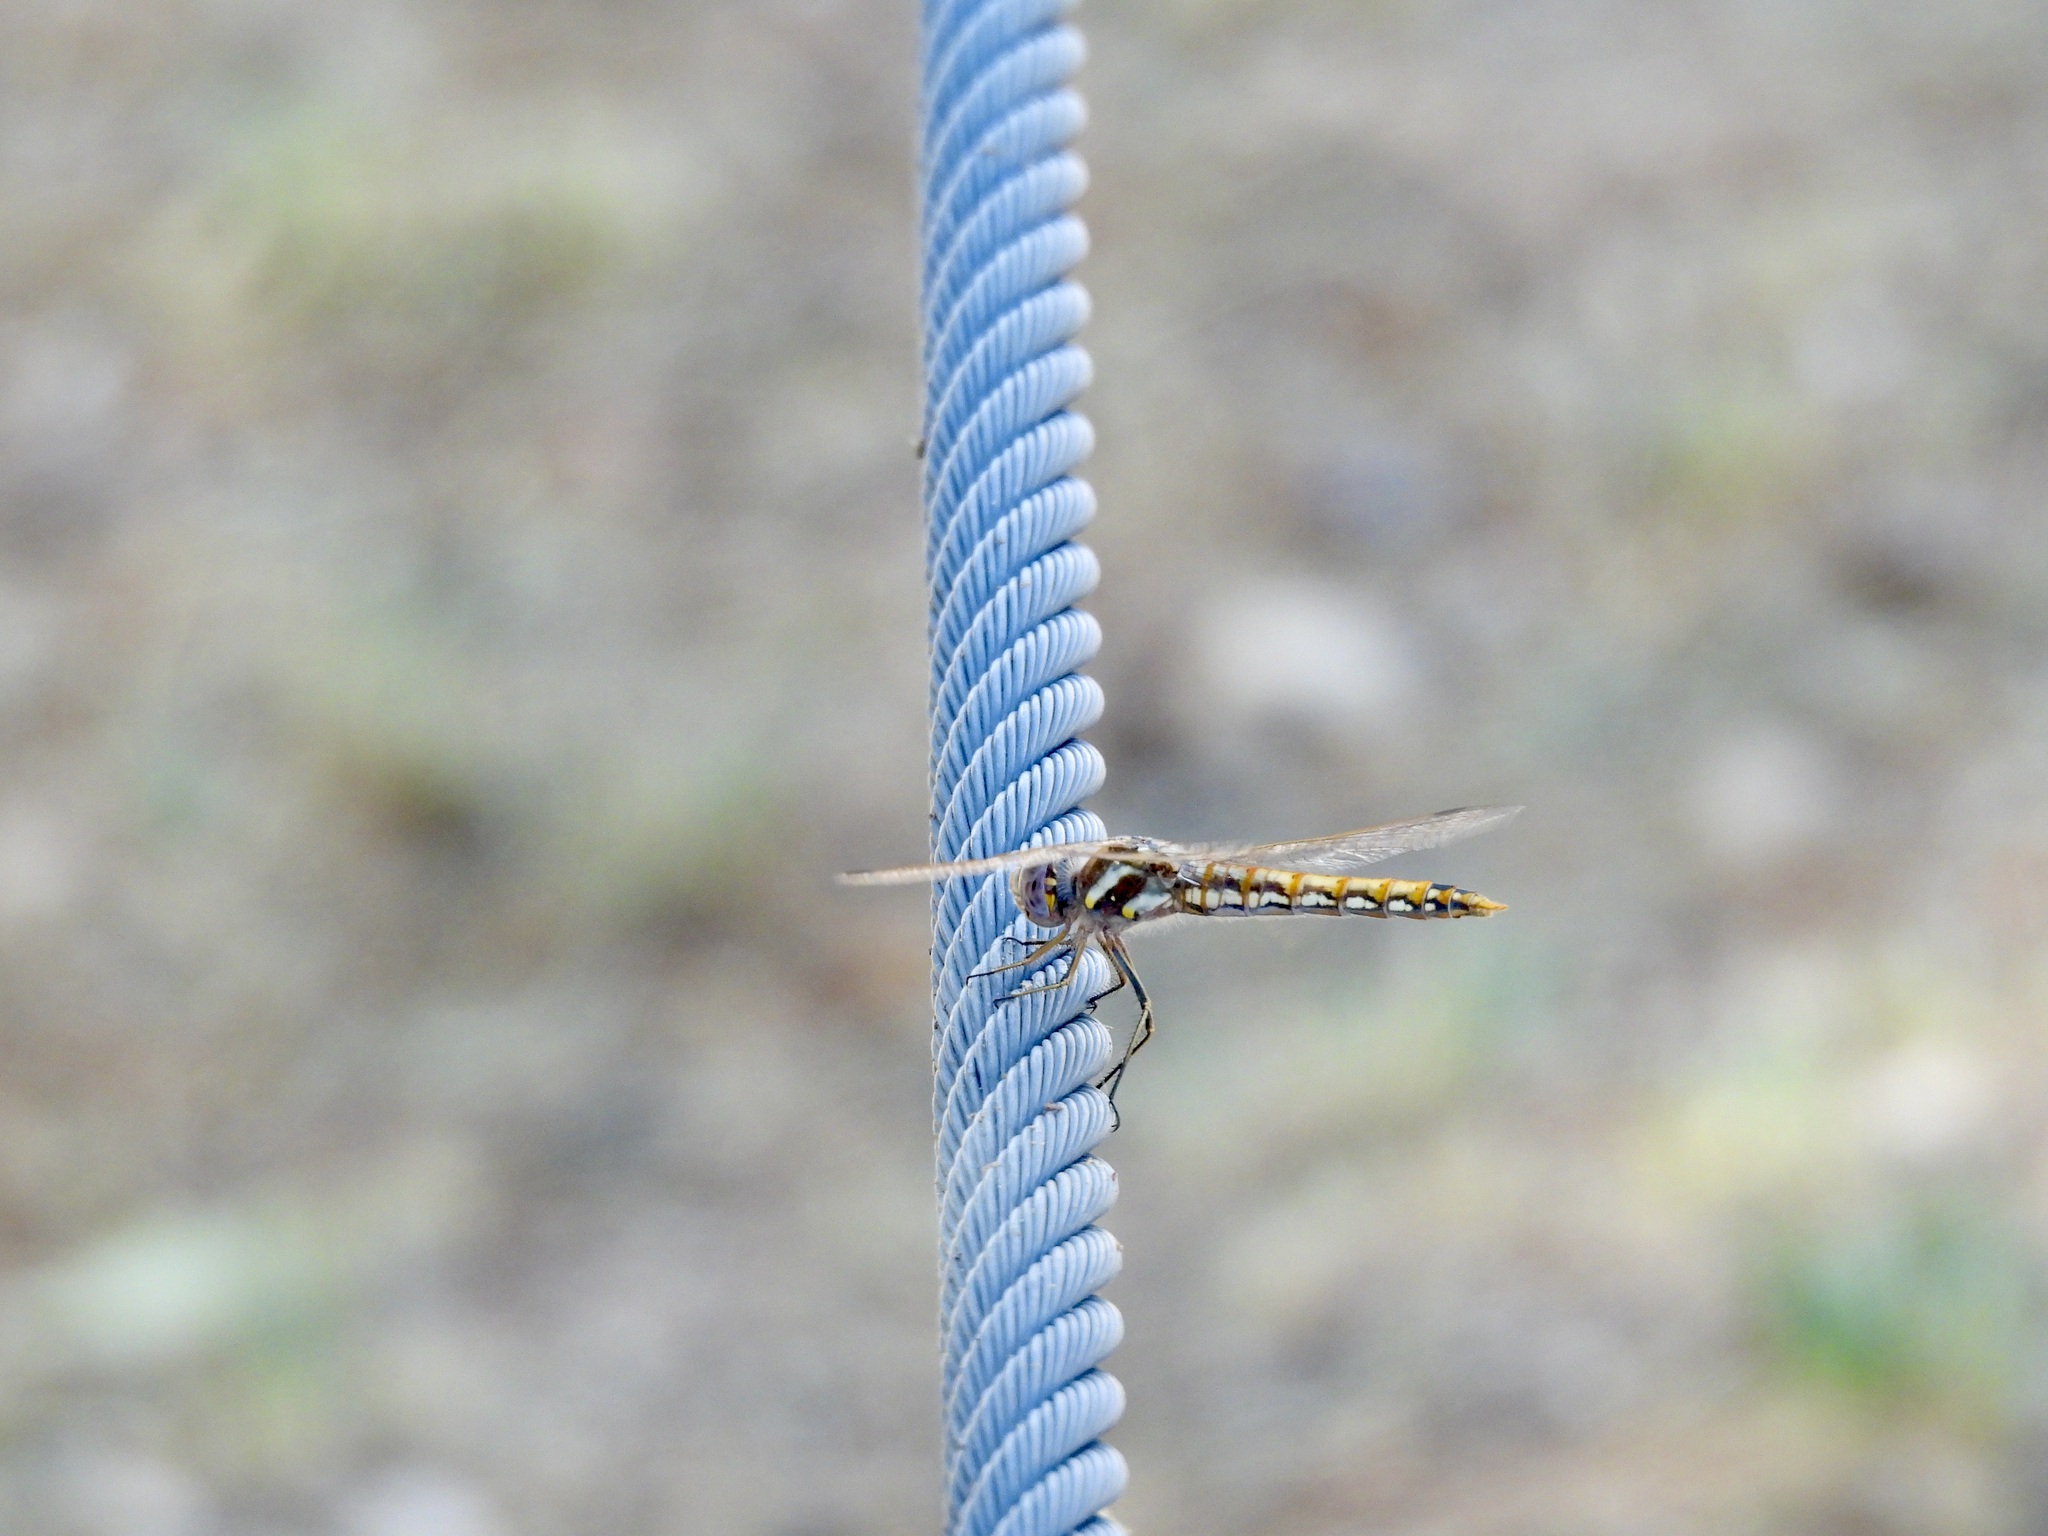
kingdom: Animalia
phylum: Arthropoda
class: Insecta
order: Odonata
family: Libellulidae
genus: Sympetrum
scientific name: Sympetrum corruptum
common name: Variegated meadowhawk
